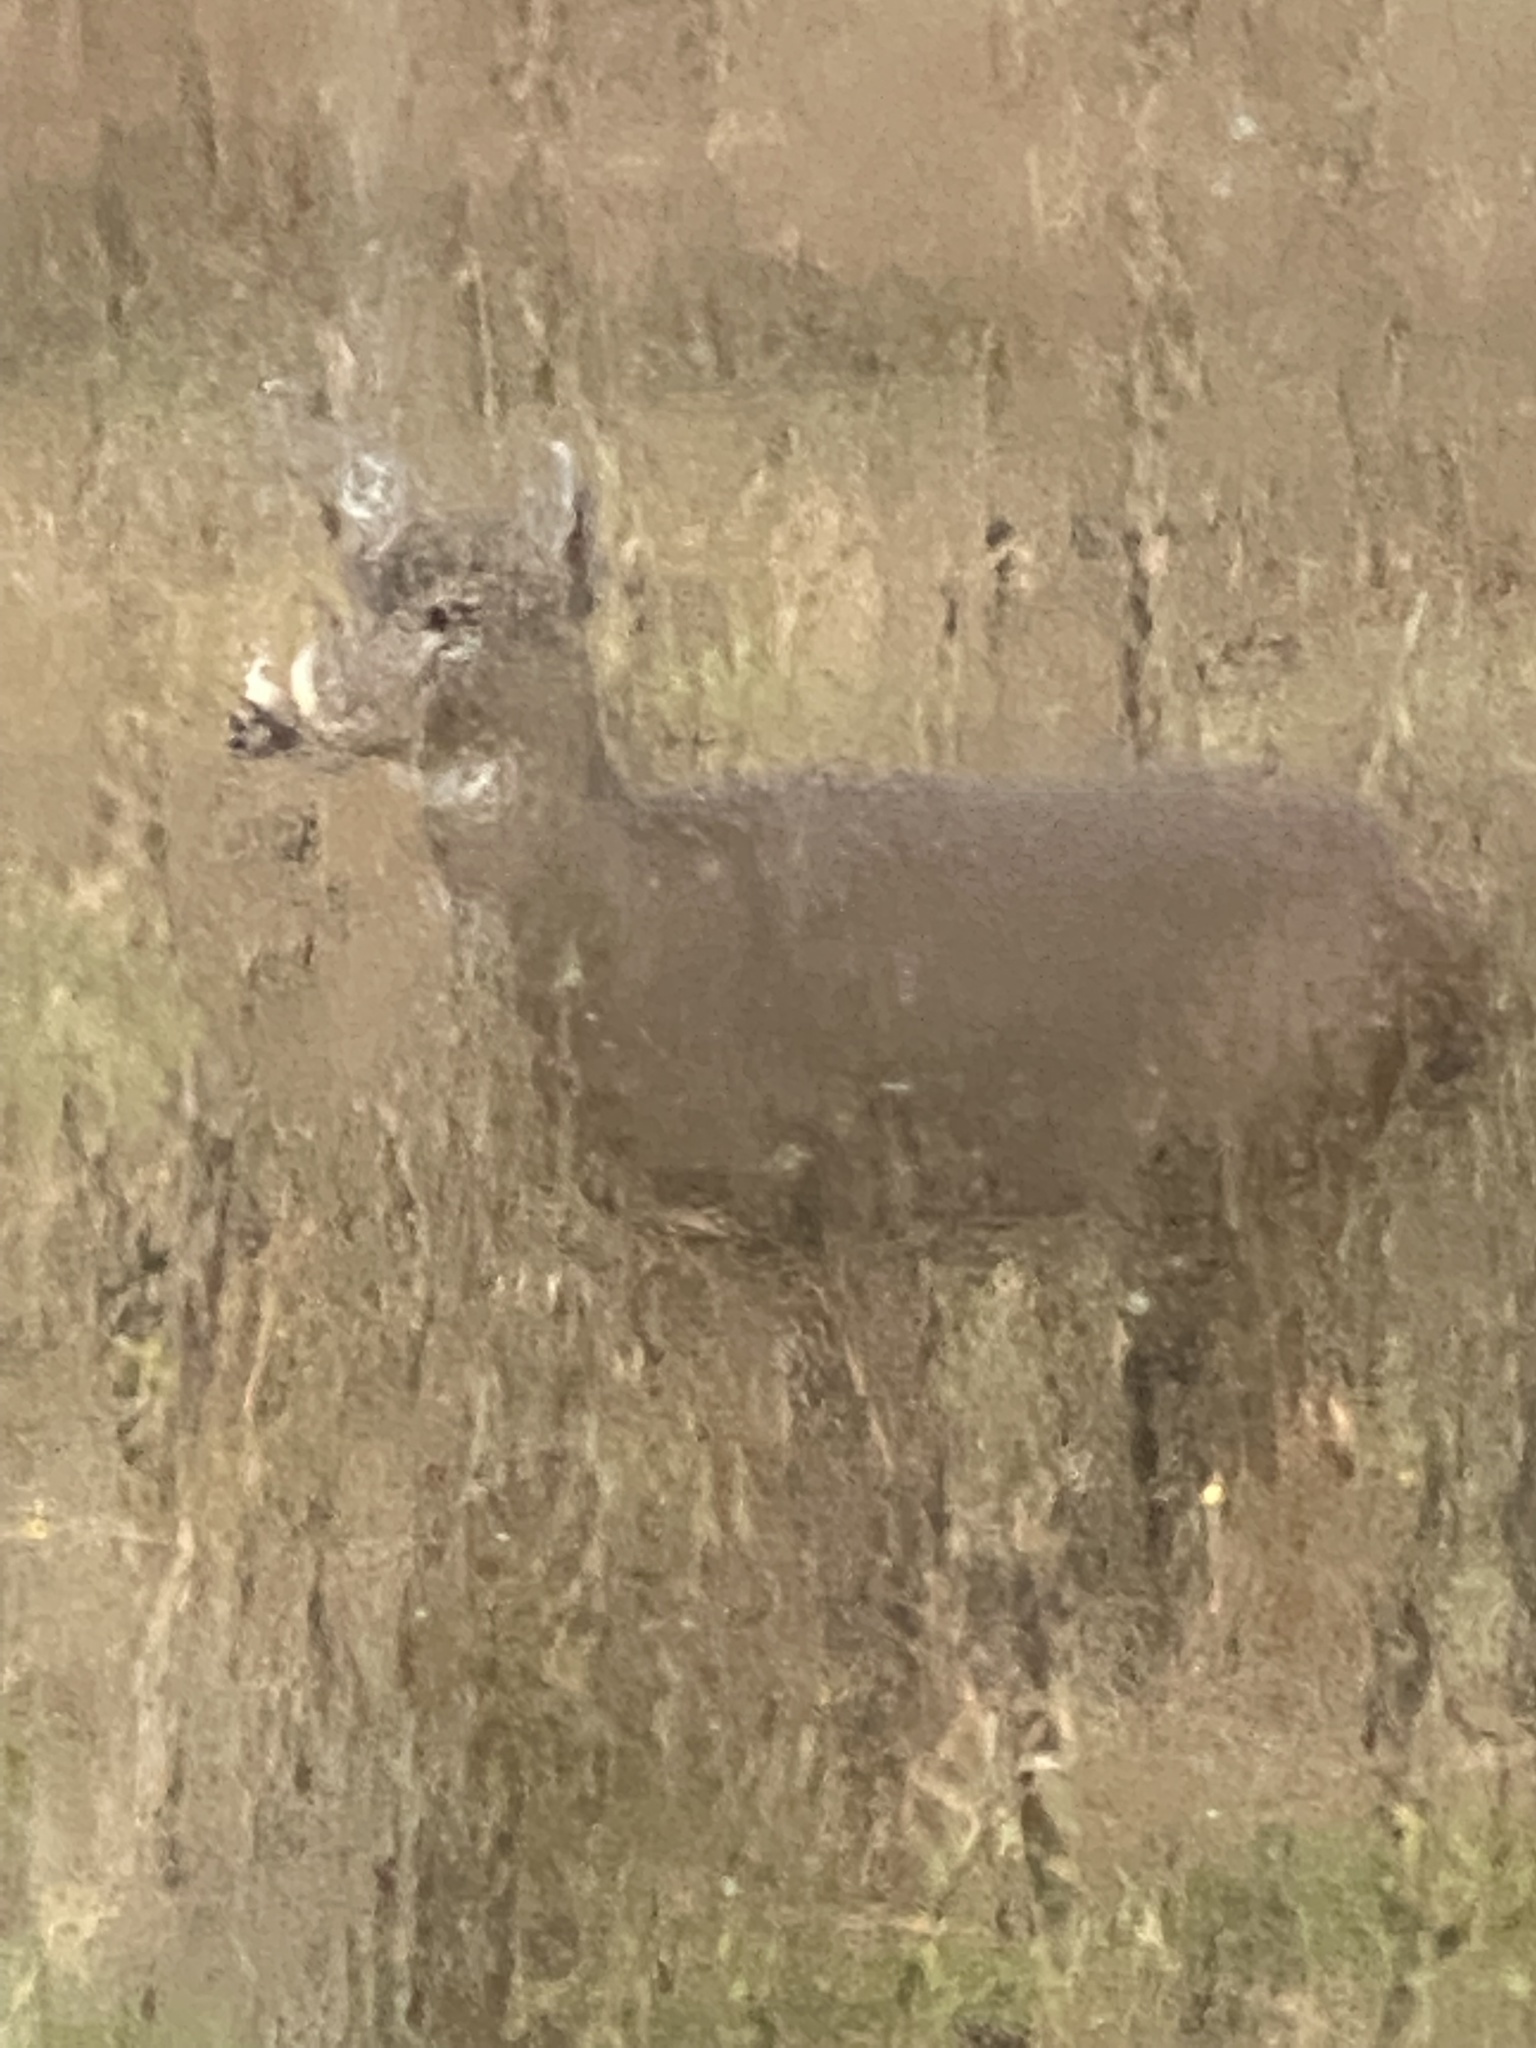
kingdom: Animalia
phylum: Chordata
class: Mammalia
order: Artiodactyla
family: Cervidae
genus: Odocoileus
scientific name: Odocoileus hemionus
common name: Mule deer
